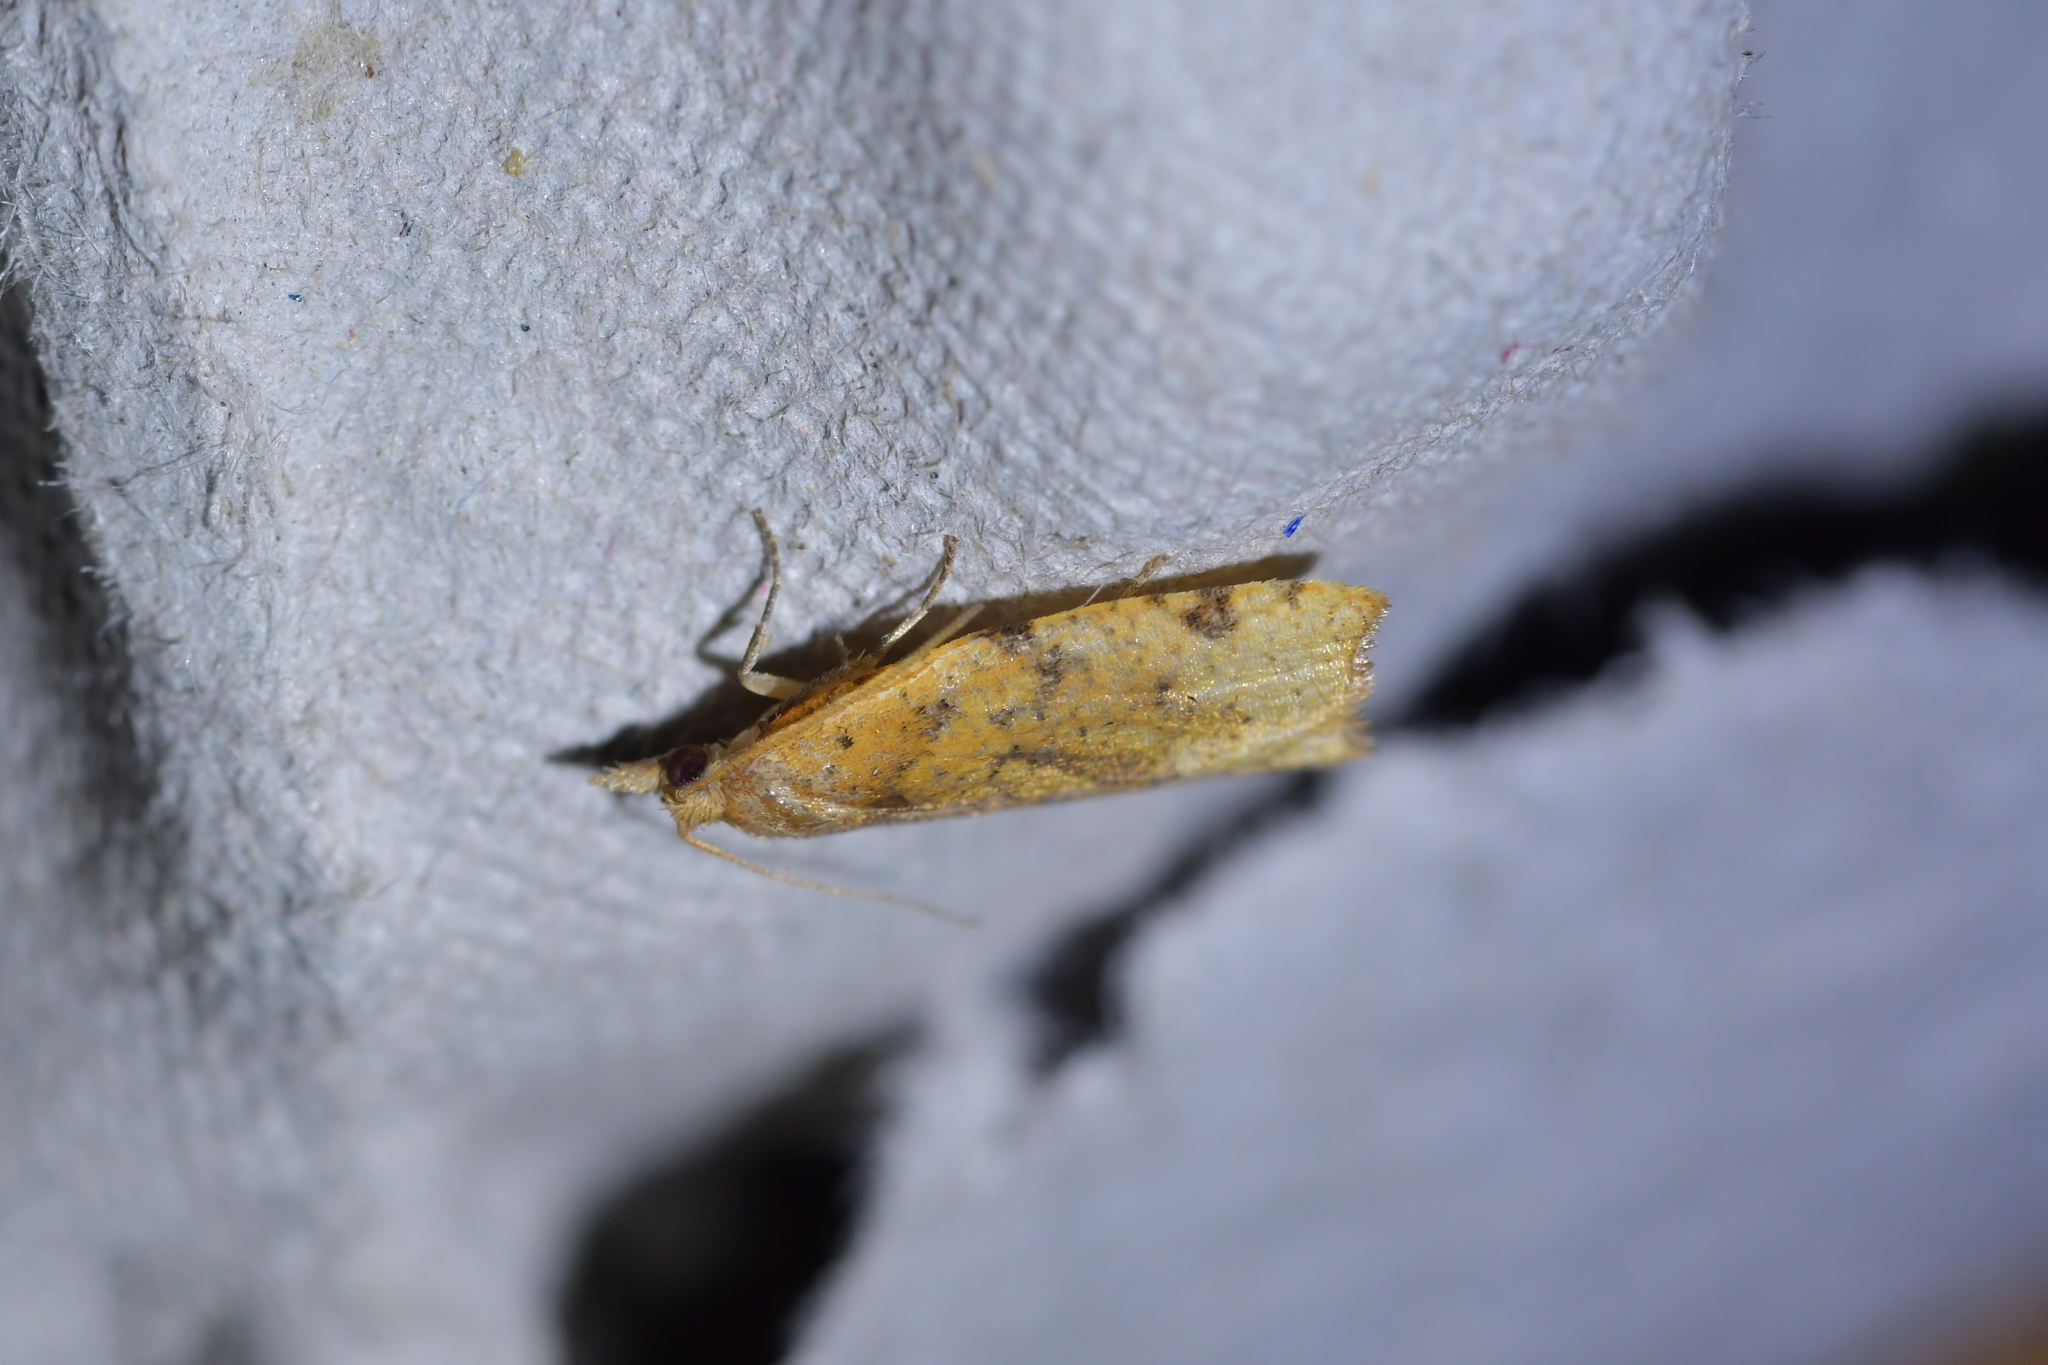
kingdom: Animalia
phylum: Arthropoda
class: Insecta
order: Lepidoptera
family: Tortricidae
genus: Apoctena
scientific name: Apoctena flavescens
